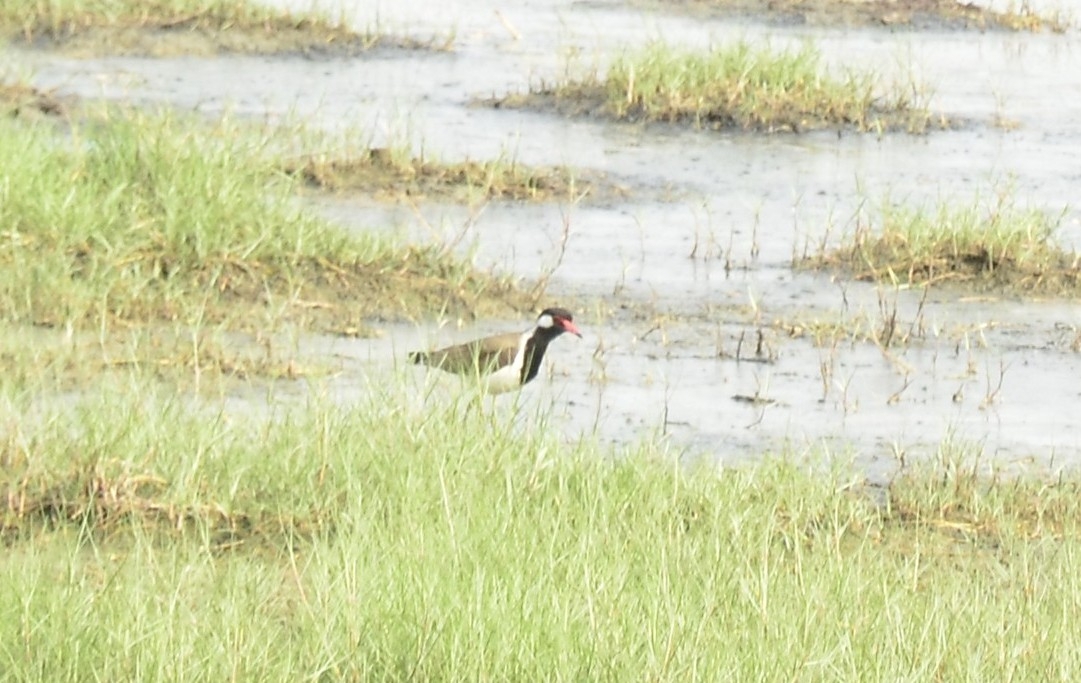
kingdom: Animalia
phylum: Chordata
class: Aves
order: Charadriiformes
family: Charadriidae
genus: Vanellus
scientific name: Vanellus indicus
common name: Red-wattled lapwing
